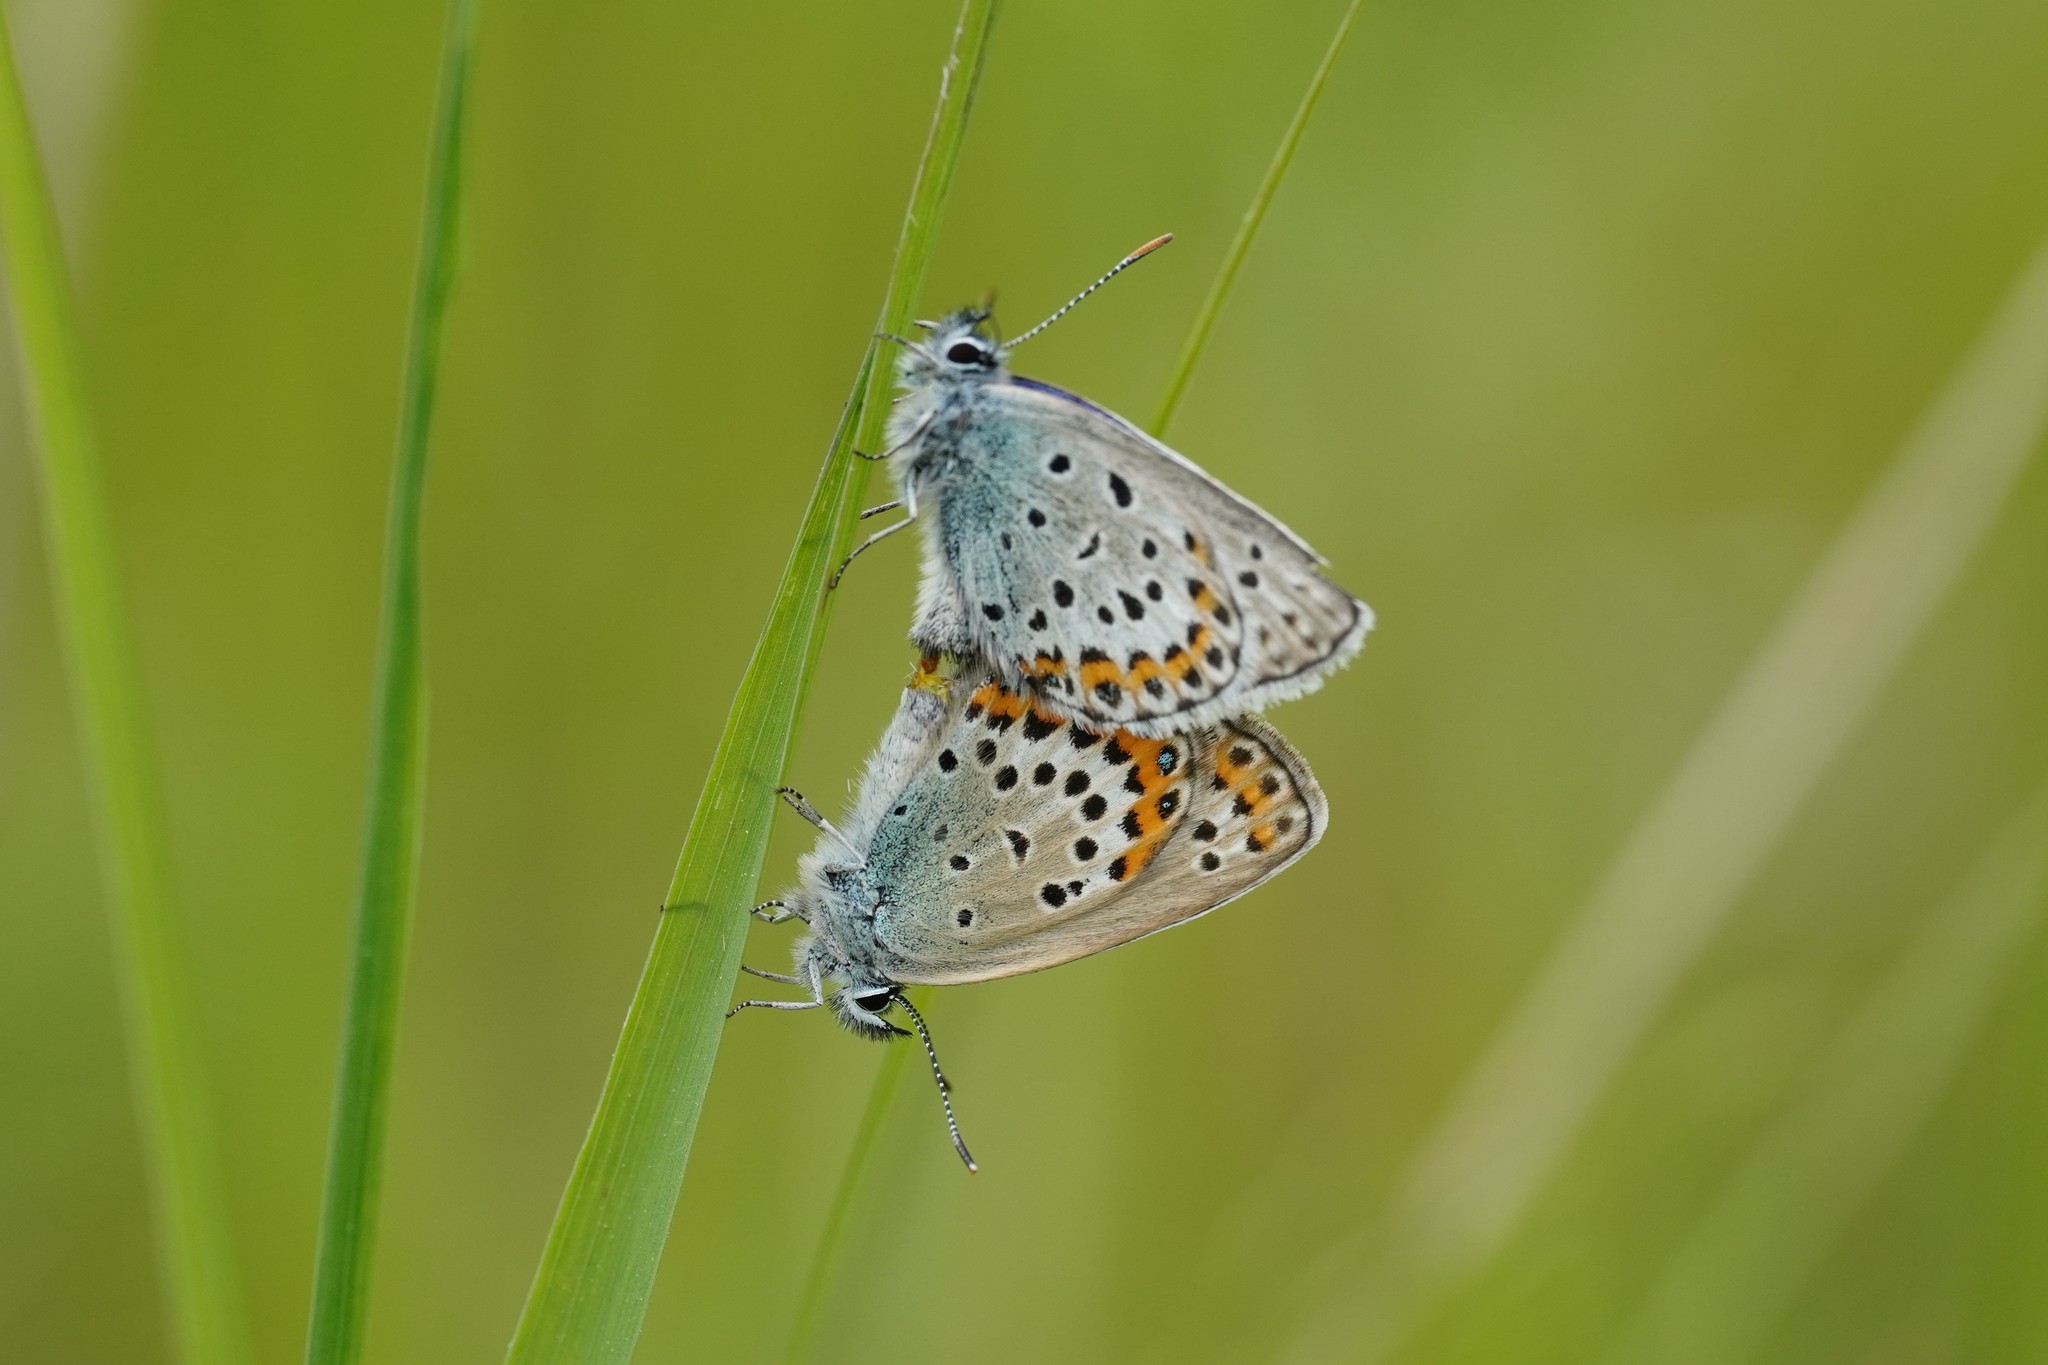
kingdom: Animalia
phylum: Arthropoda
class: Insecta
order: Lepidoptera
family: Lycaenidae
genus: Lycaeides
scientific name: Lycaeides idas
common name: Northern blue
